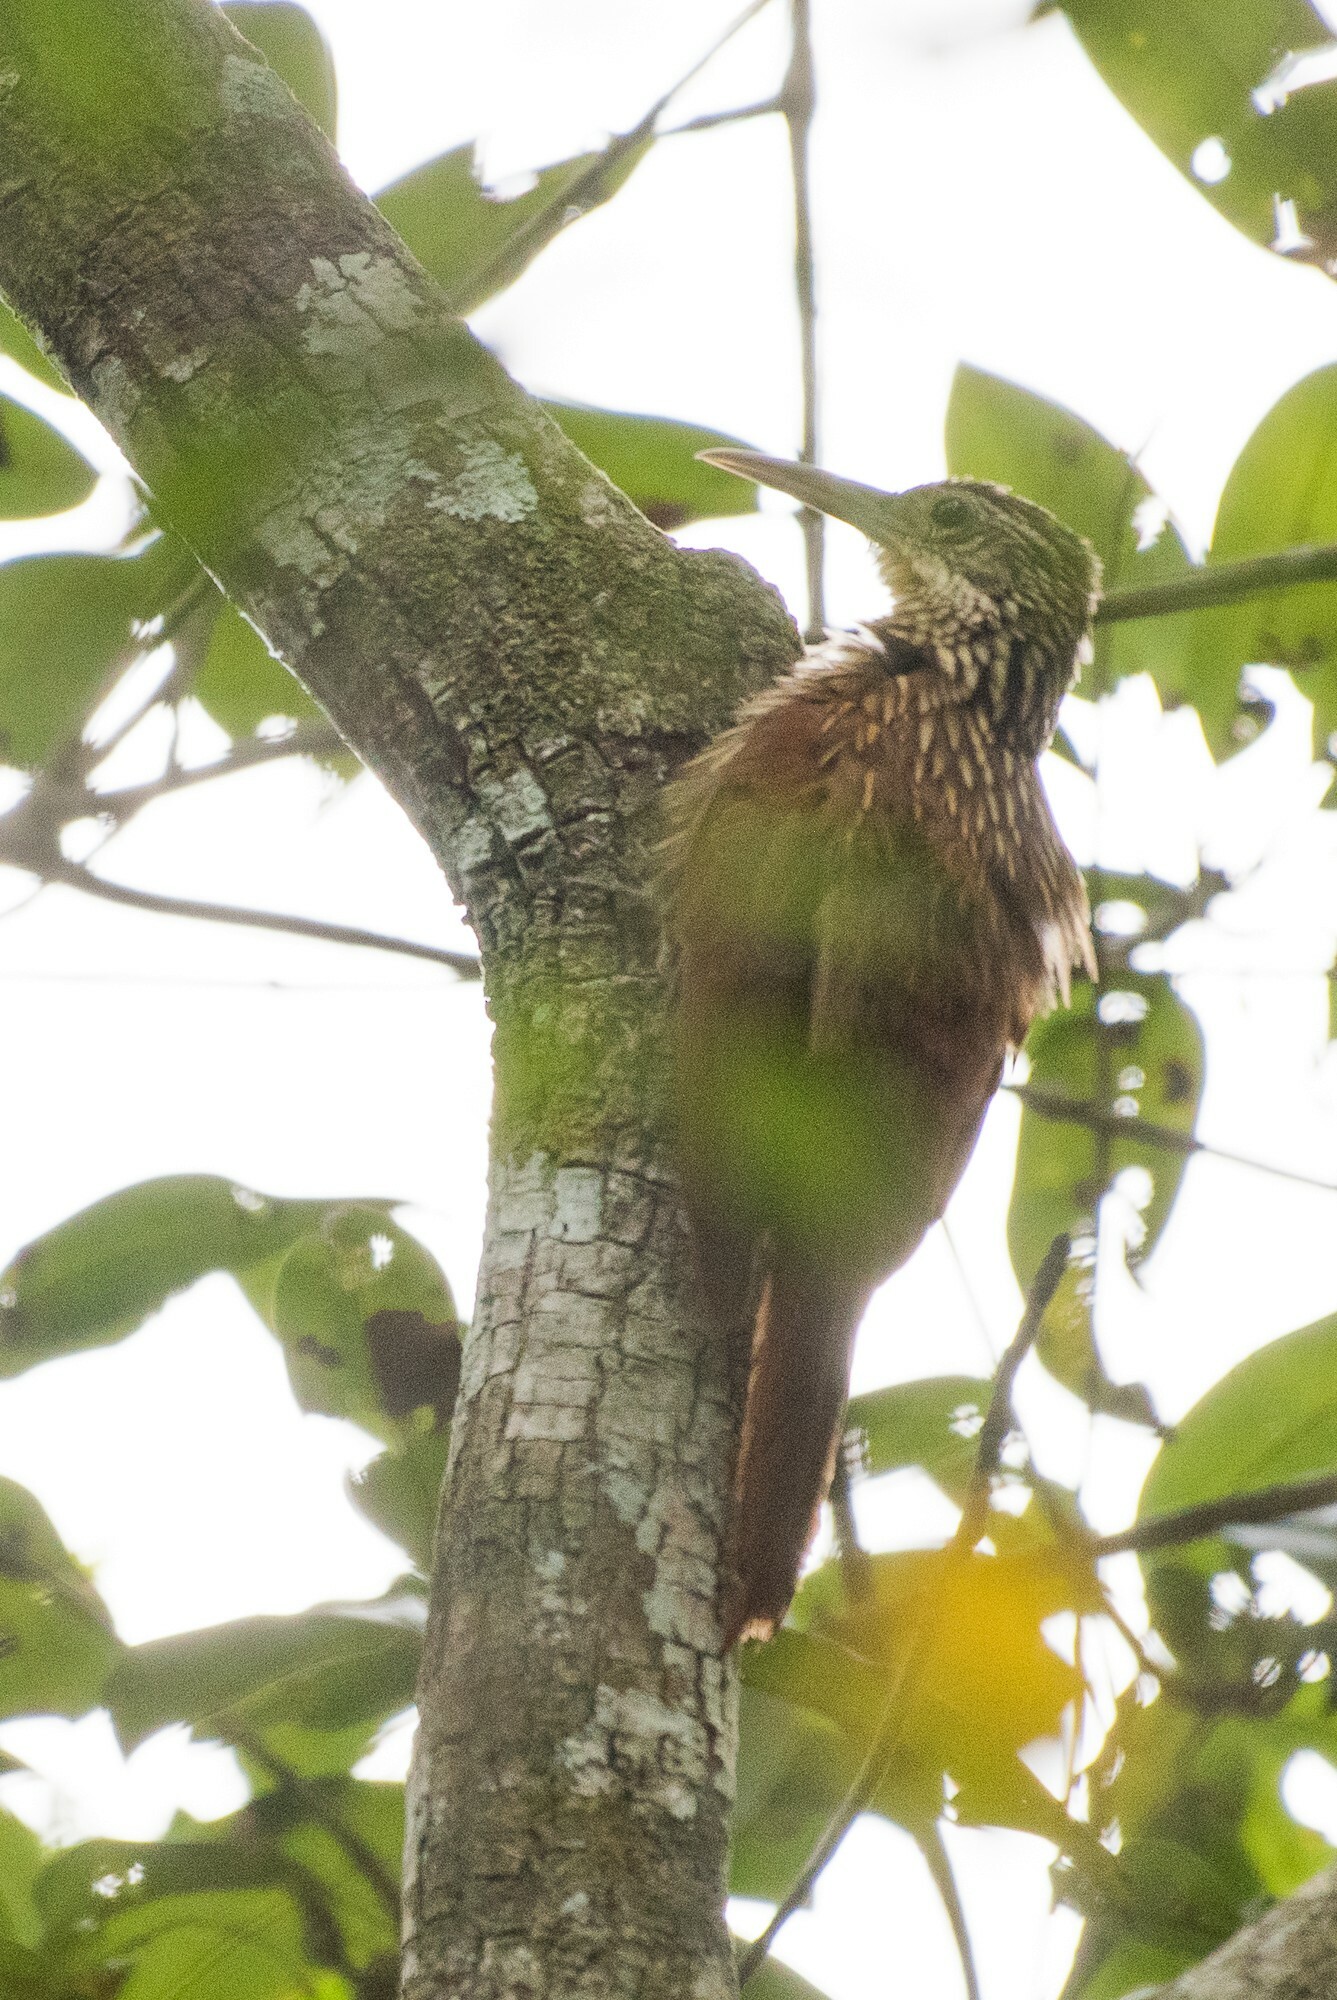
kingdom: Animalia
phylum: Chordata
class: Aves
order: Passeriformes
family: Furnariidae
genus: Xiphorhynchus
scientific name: Xiphorhynchus flavigaster
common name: Ivory-billed woodcreeper
